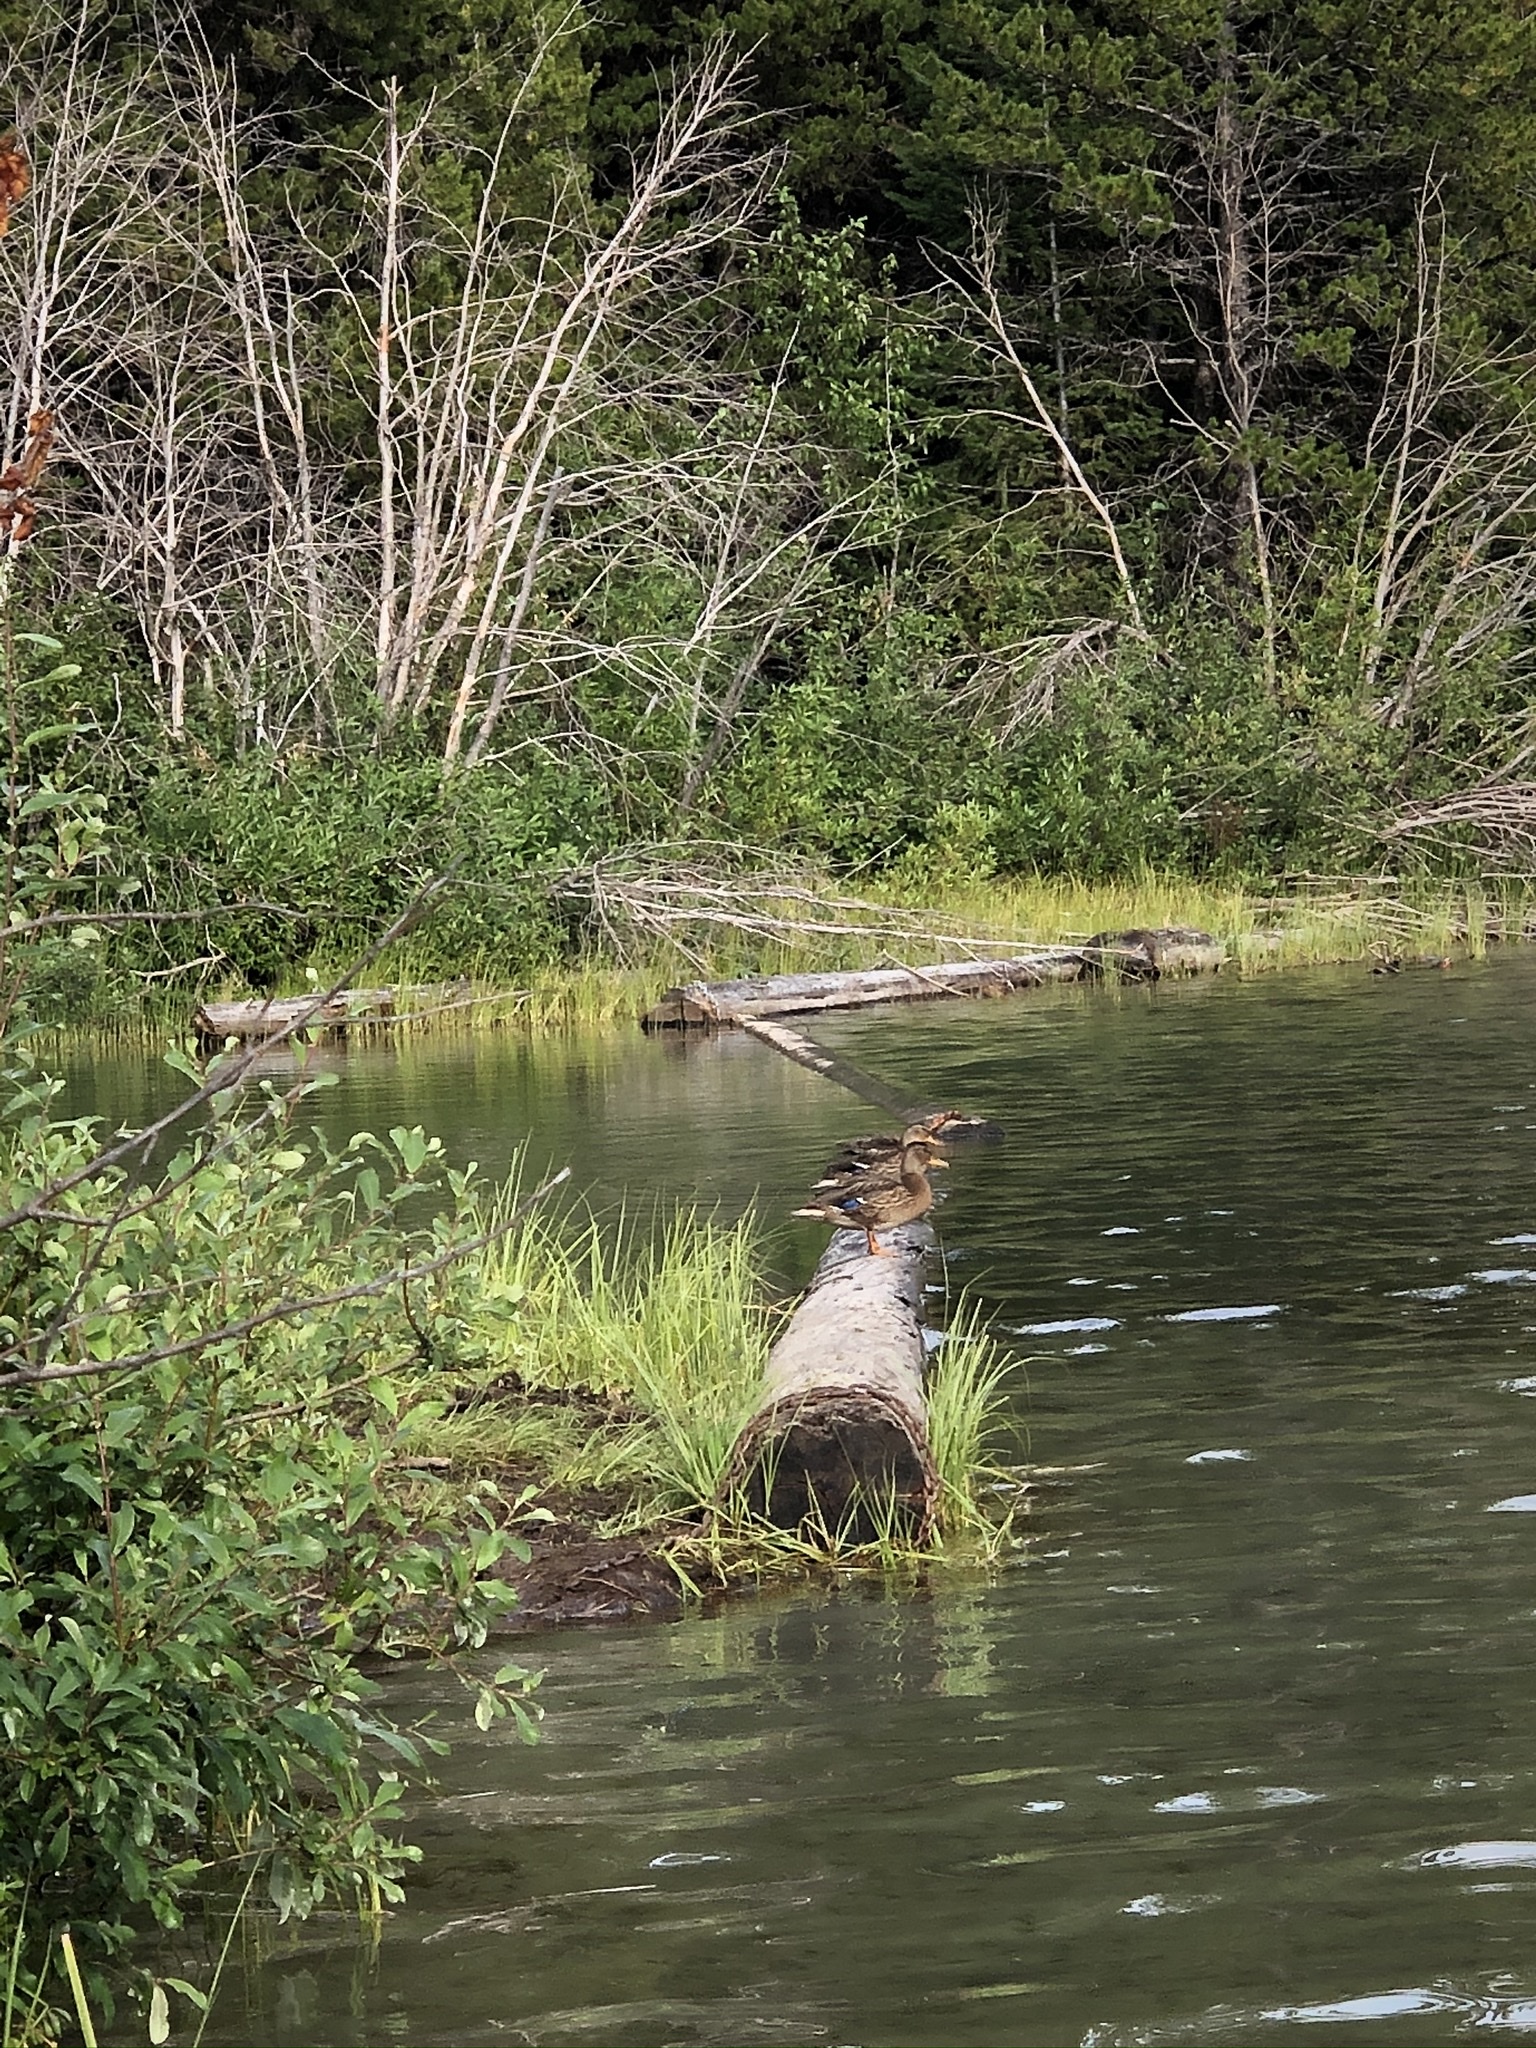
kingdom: Animalia
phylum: Chordata
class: Aves
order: Anseriformes
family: Anatidae
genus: Anas
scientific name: Anas platyrhynchos
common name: Mallard
